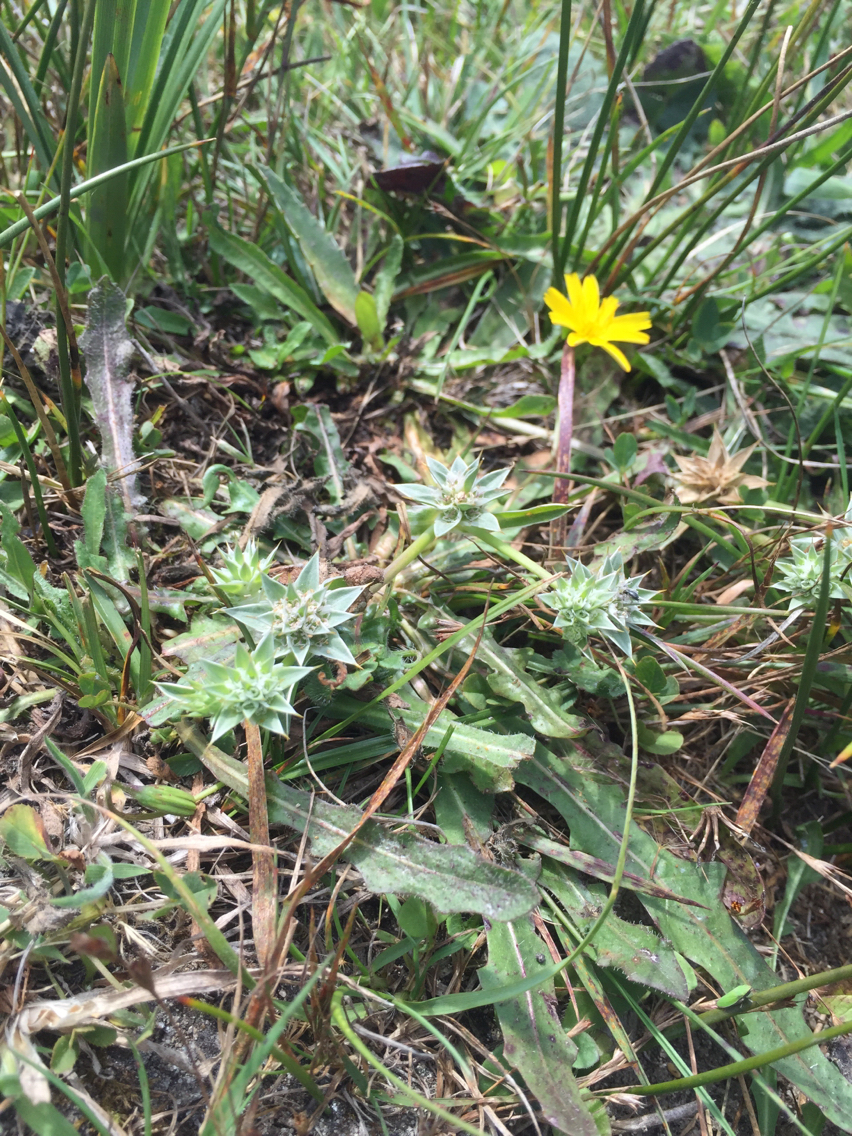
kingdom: Plantae
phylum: Tracheophyta
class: Magnoliopsida
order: Apiales
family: Apiaceae
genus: Eryngium
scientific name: Eryngium armatum
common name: Coyote thistle
